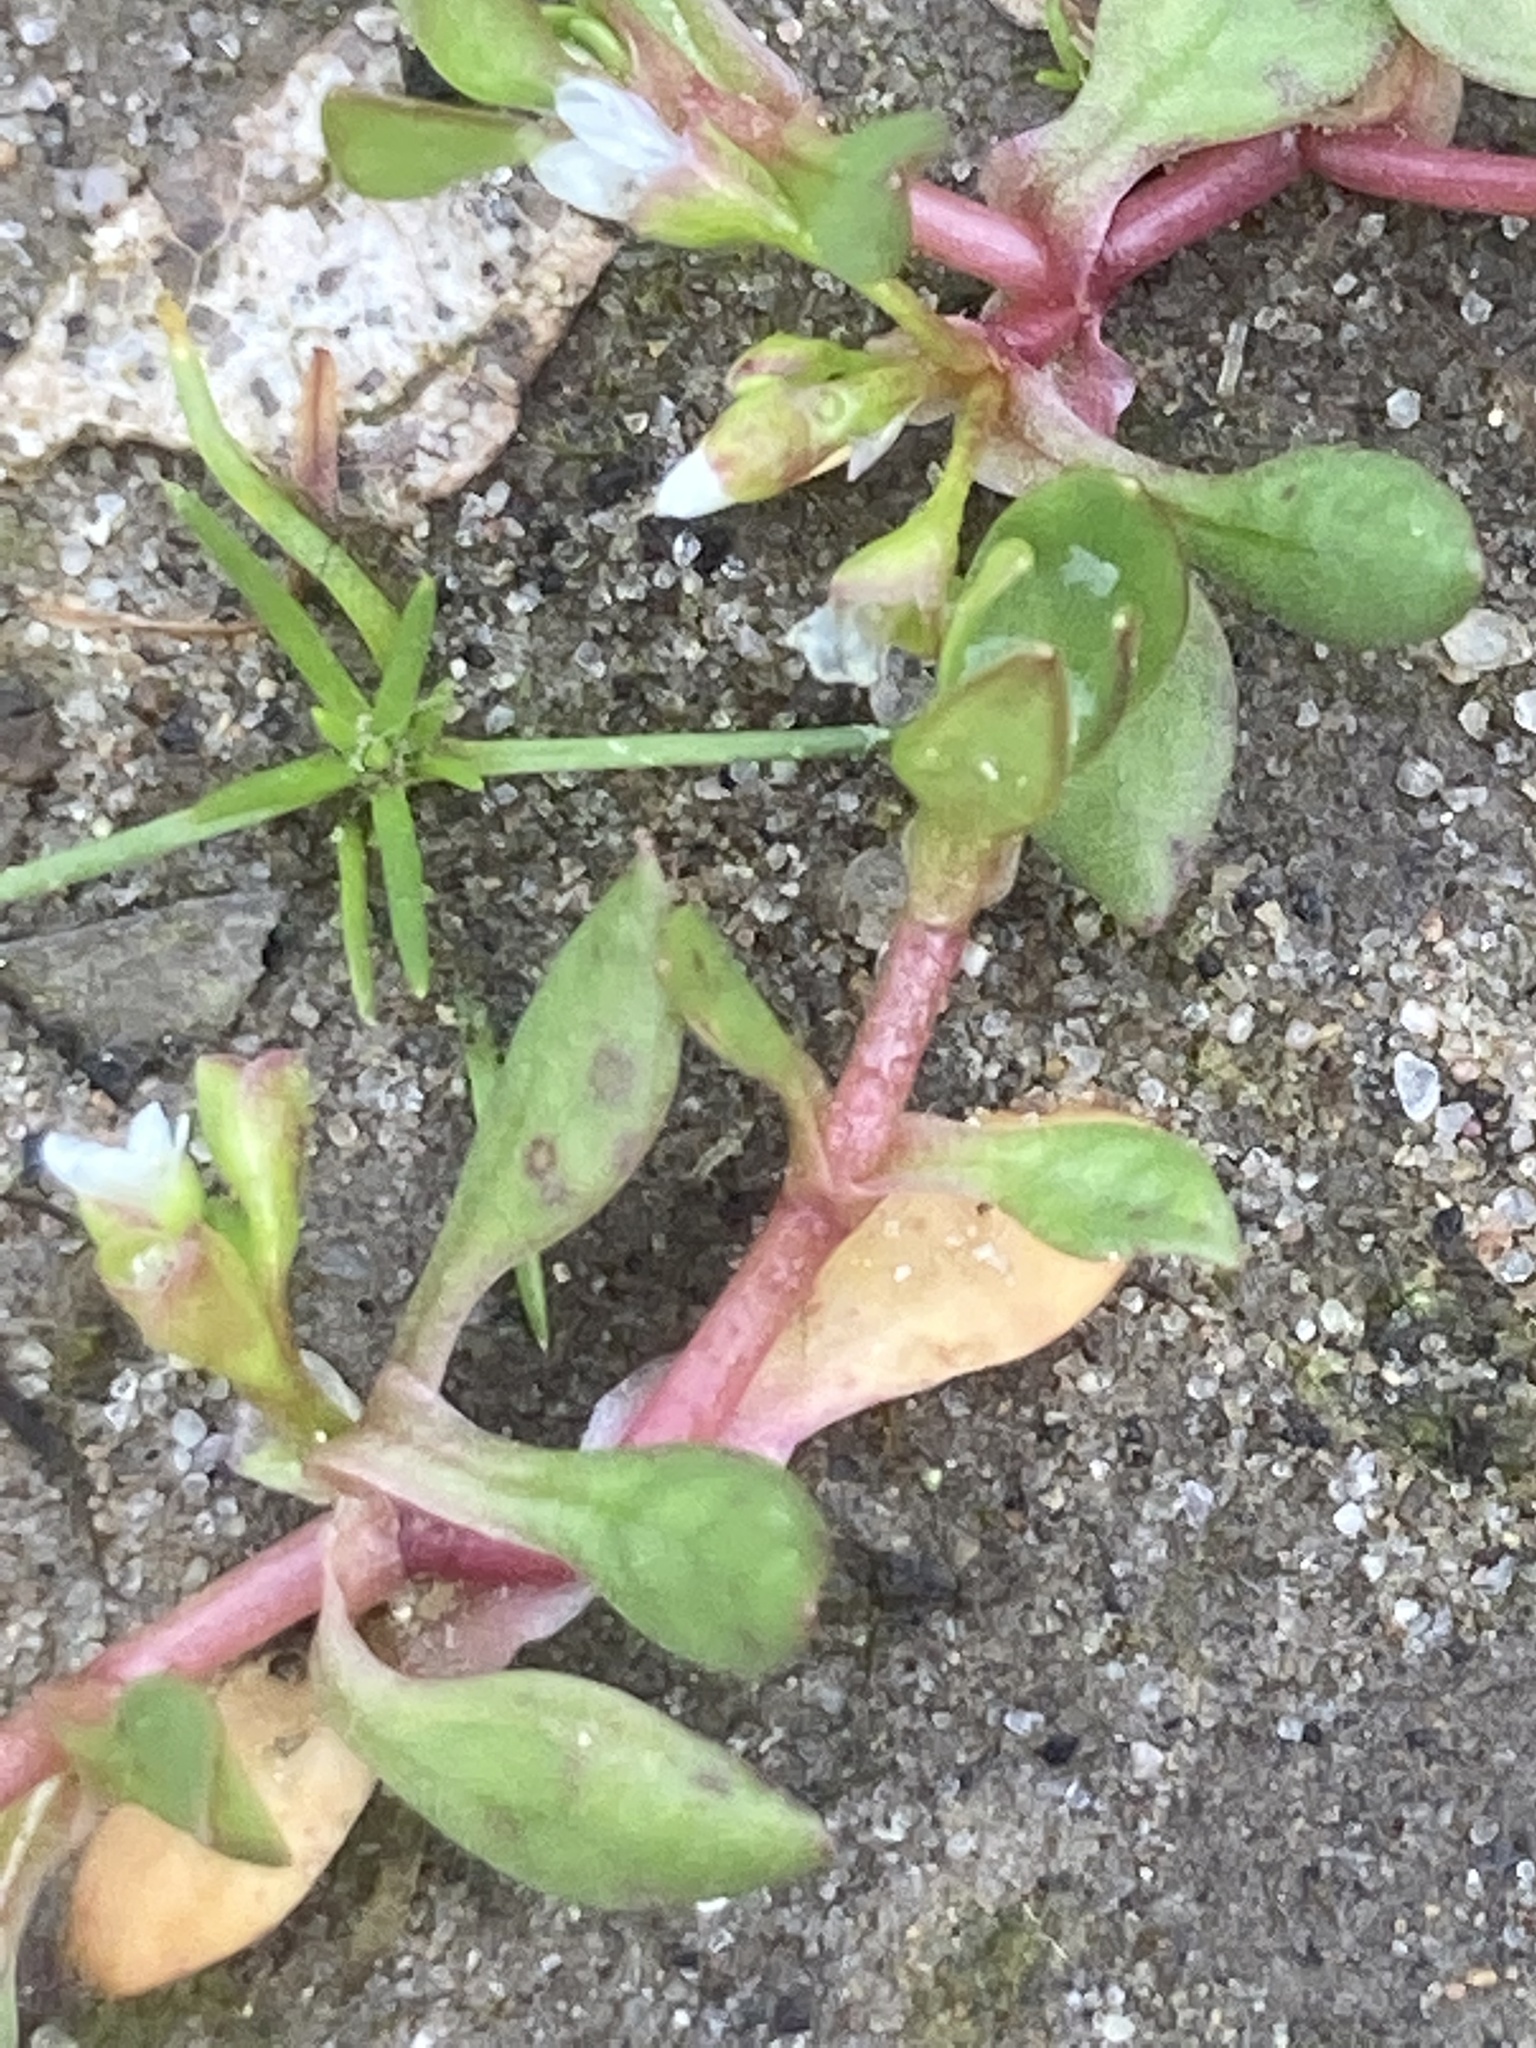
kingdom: Plantae
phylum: Tracheophyta
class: Magnoliopsida
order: Caryophyllales
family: Portulacaceae
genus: Portulaca
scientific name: Portulaca oleracea
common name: Common purslane
